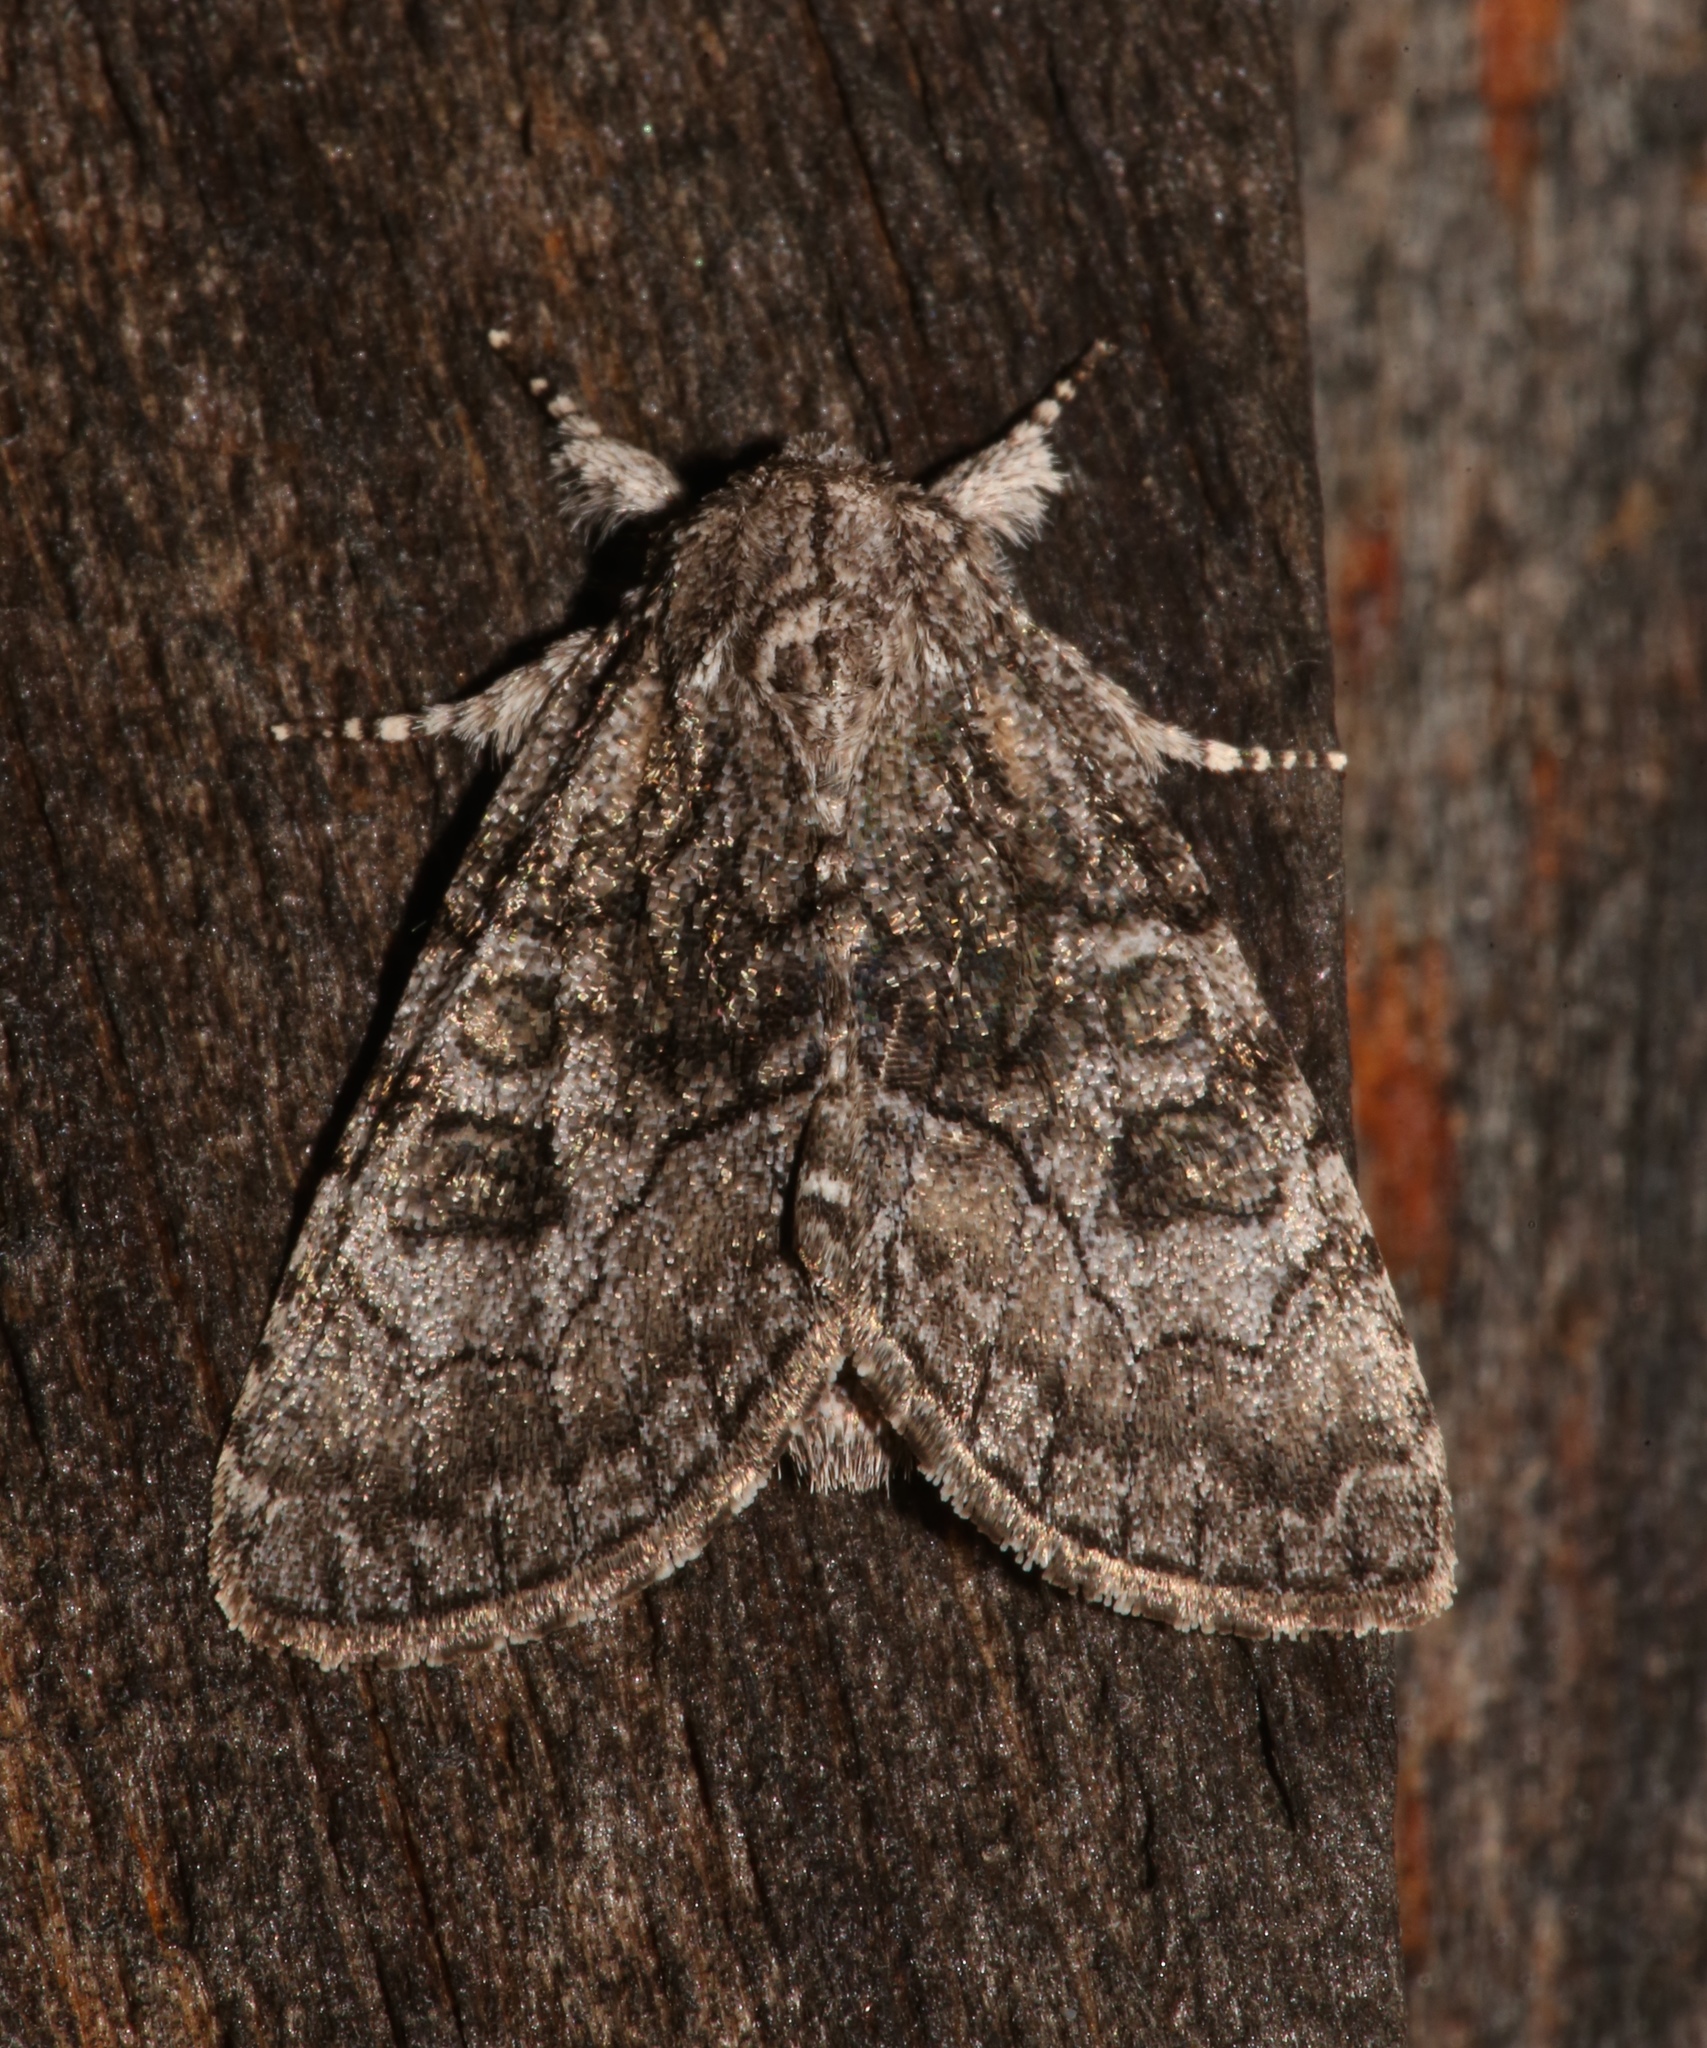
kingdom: Animalia
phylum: Arthropoda
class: Insecta
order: Lepidoptera
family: Noctuidae
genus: Raphia
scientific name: Raphia frater
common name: Brother
